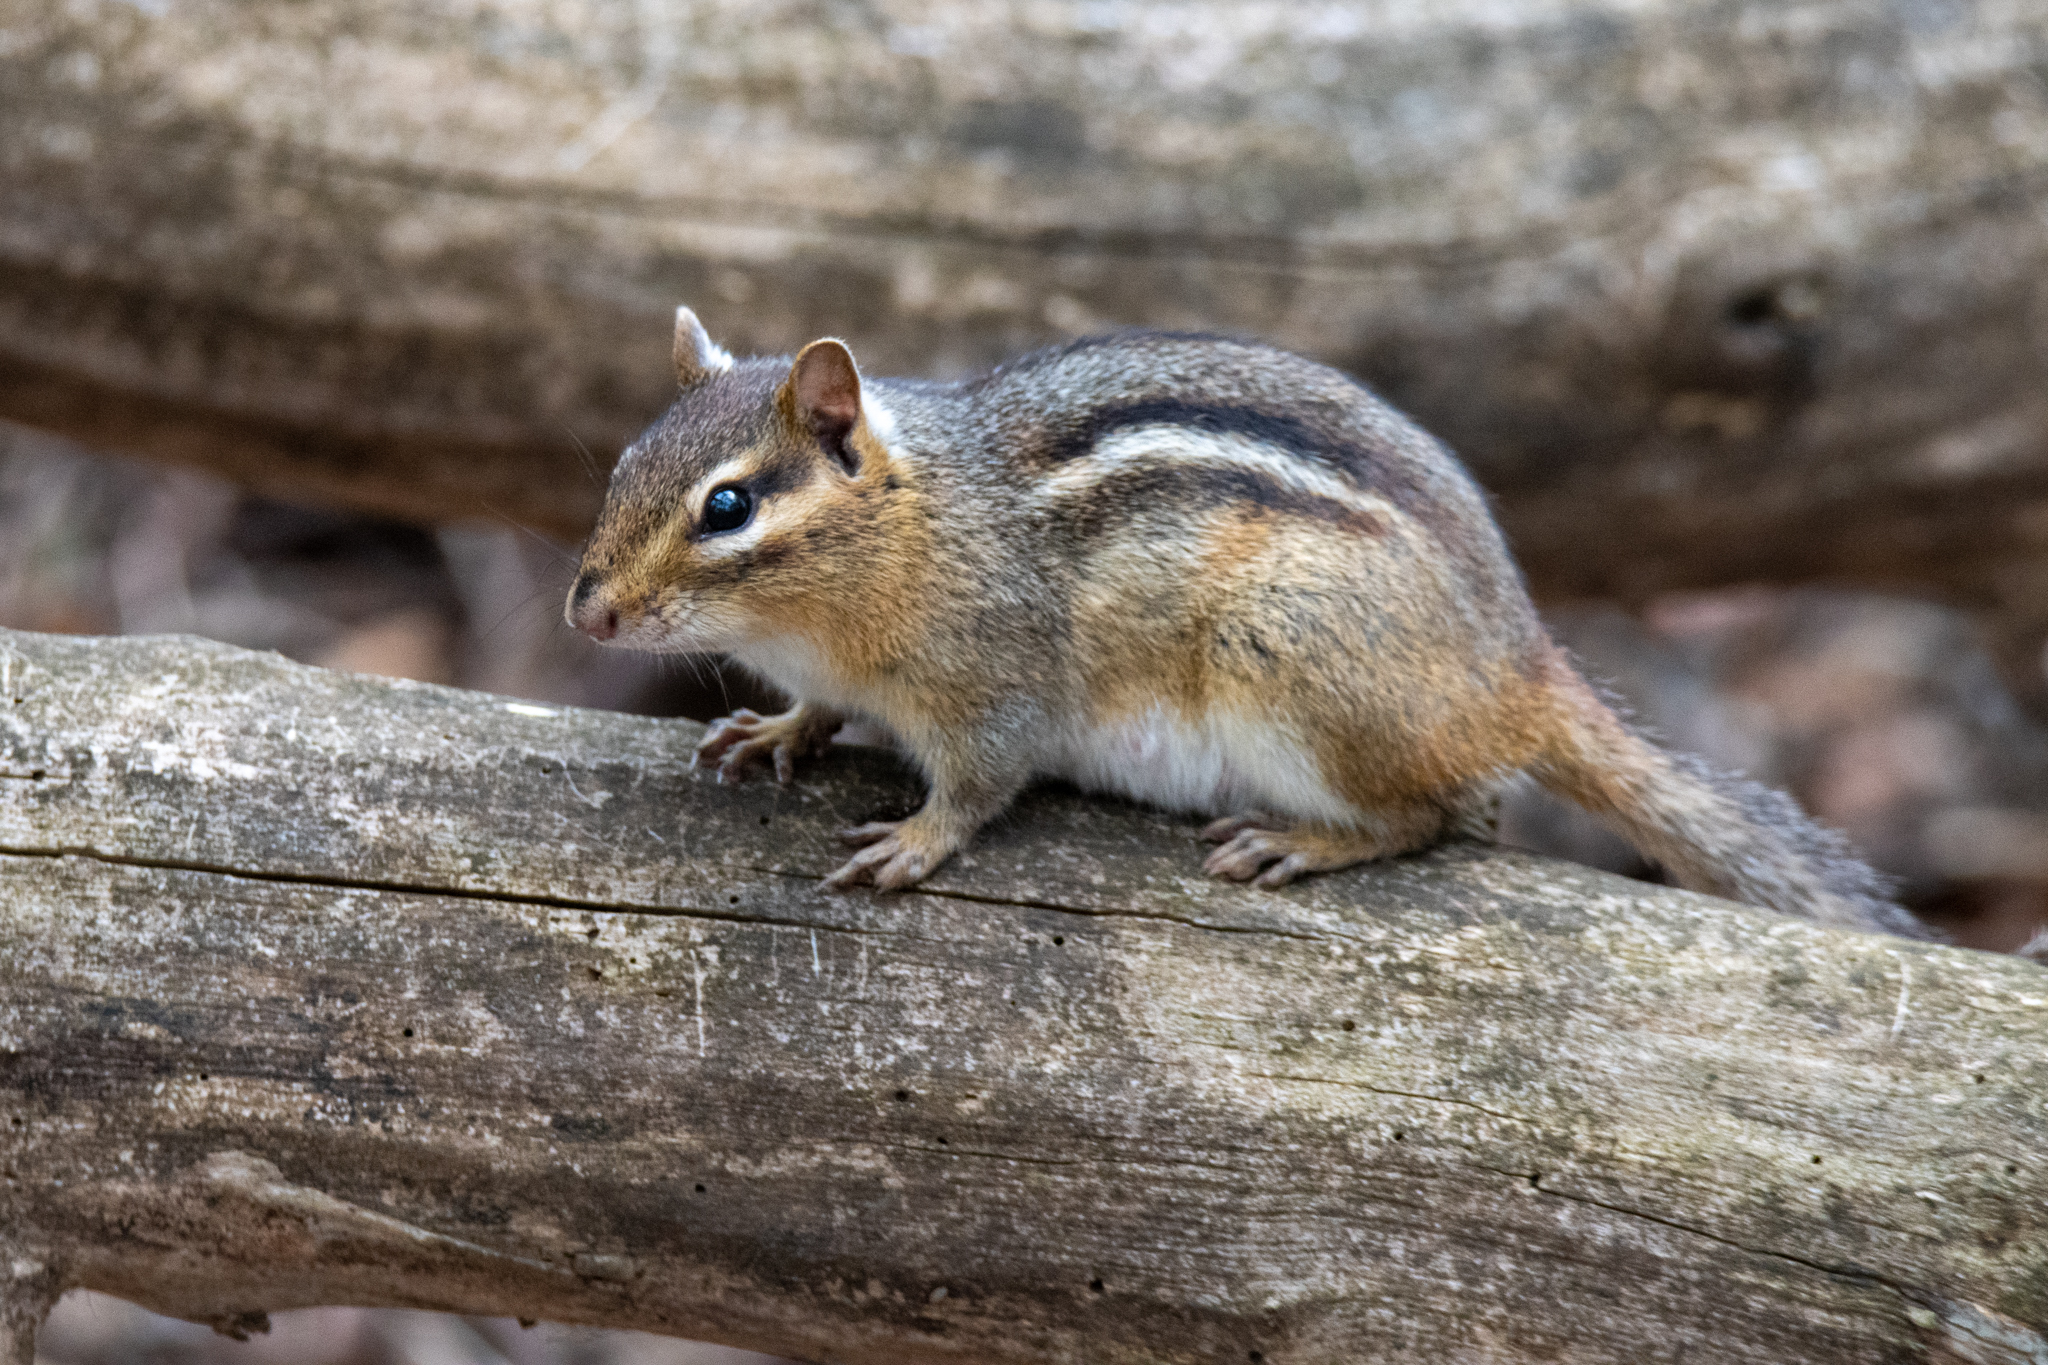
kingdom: Animalia
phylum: Chordata
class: Mammalia
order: Rodentia
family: Sciuridae
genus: Tamias
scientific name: Tamias striatus
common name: Eastern chipmunk
